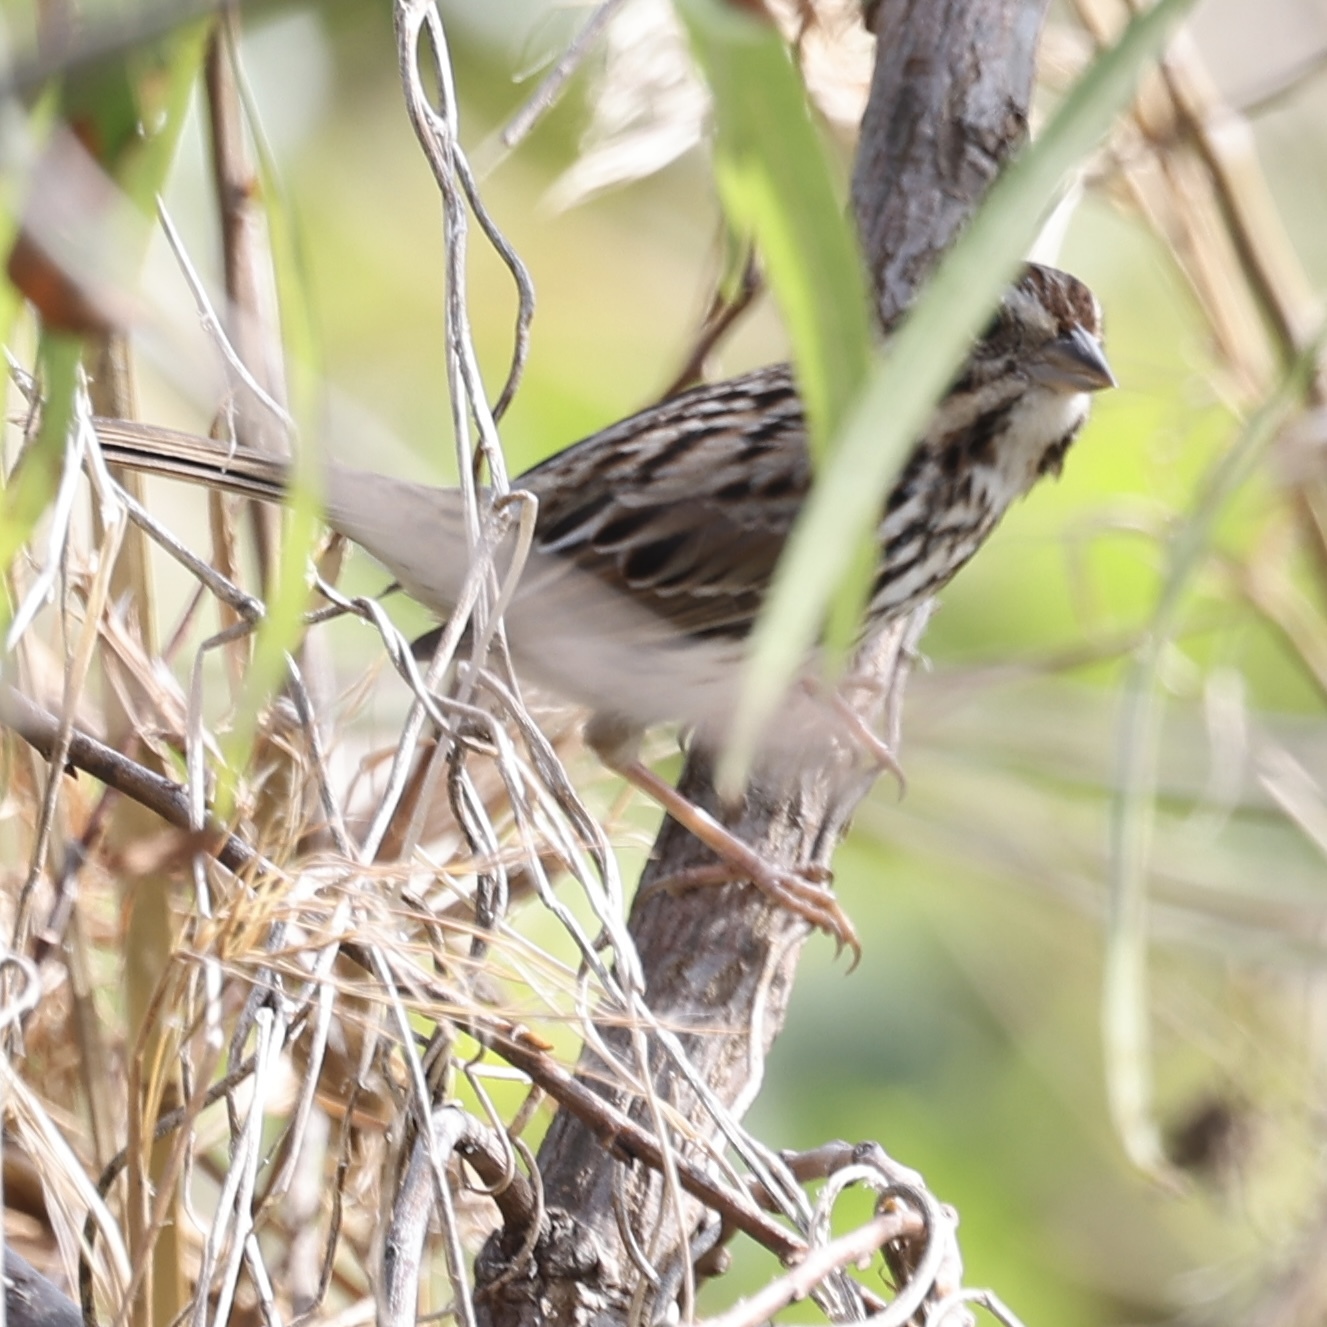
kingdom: Animalia
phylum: Chordata
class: Aves
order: Passeriformes
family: Passerellidae
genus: Melospiza
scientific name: Melospiza melodia
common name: Song sparrow
